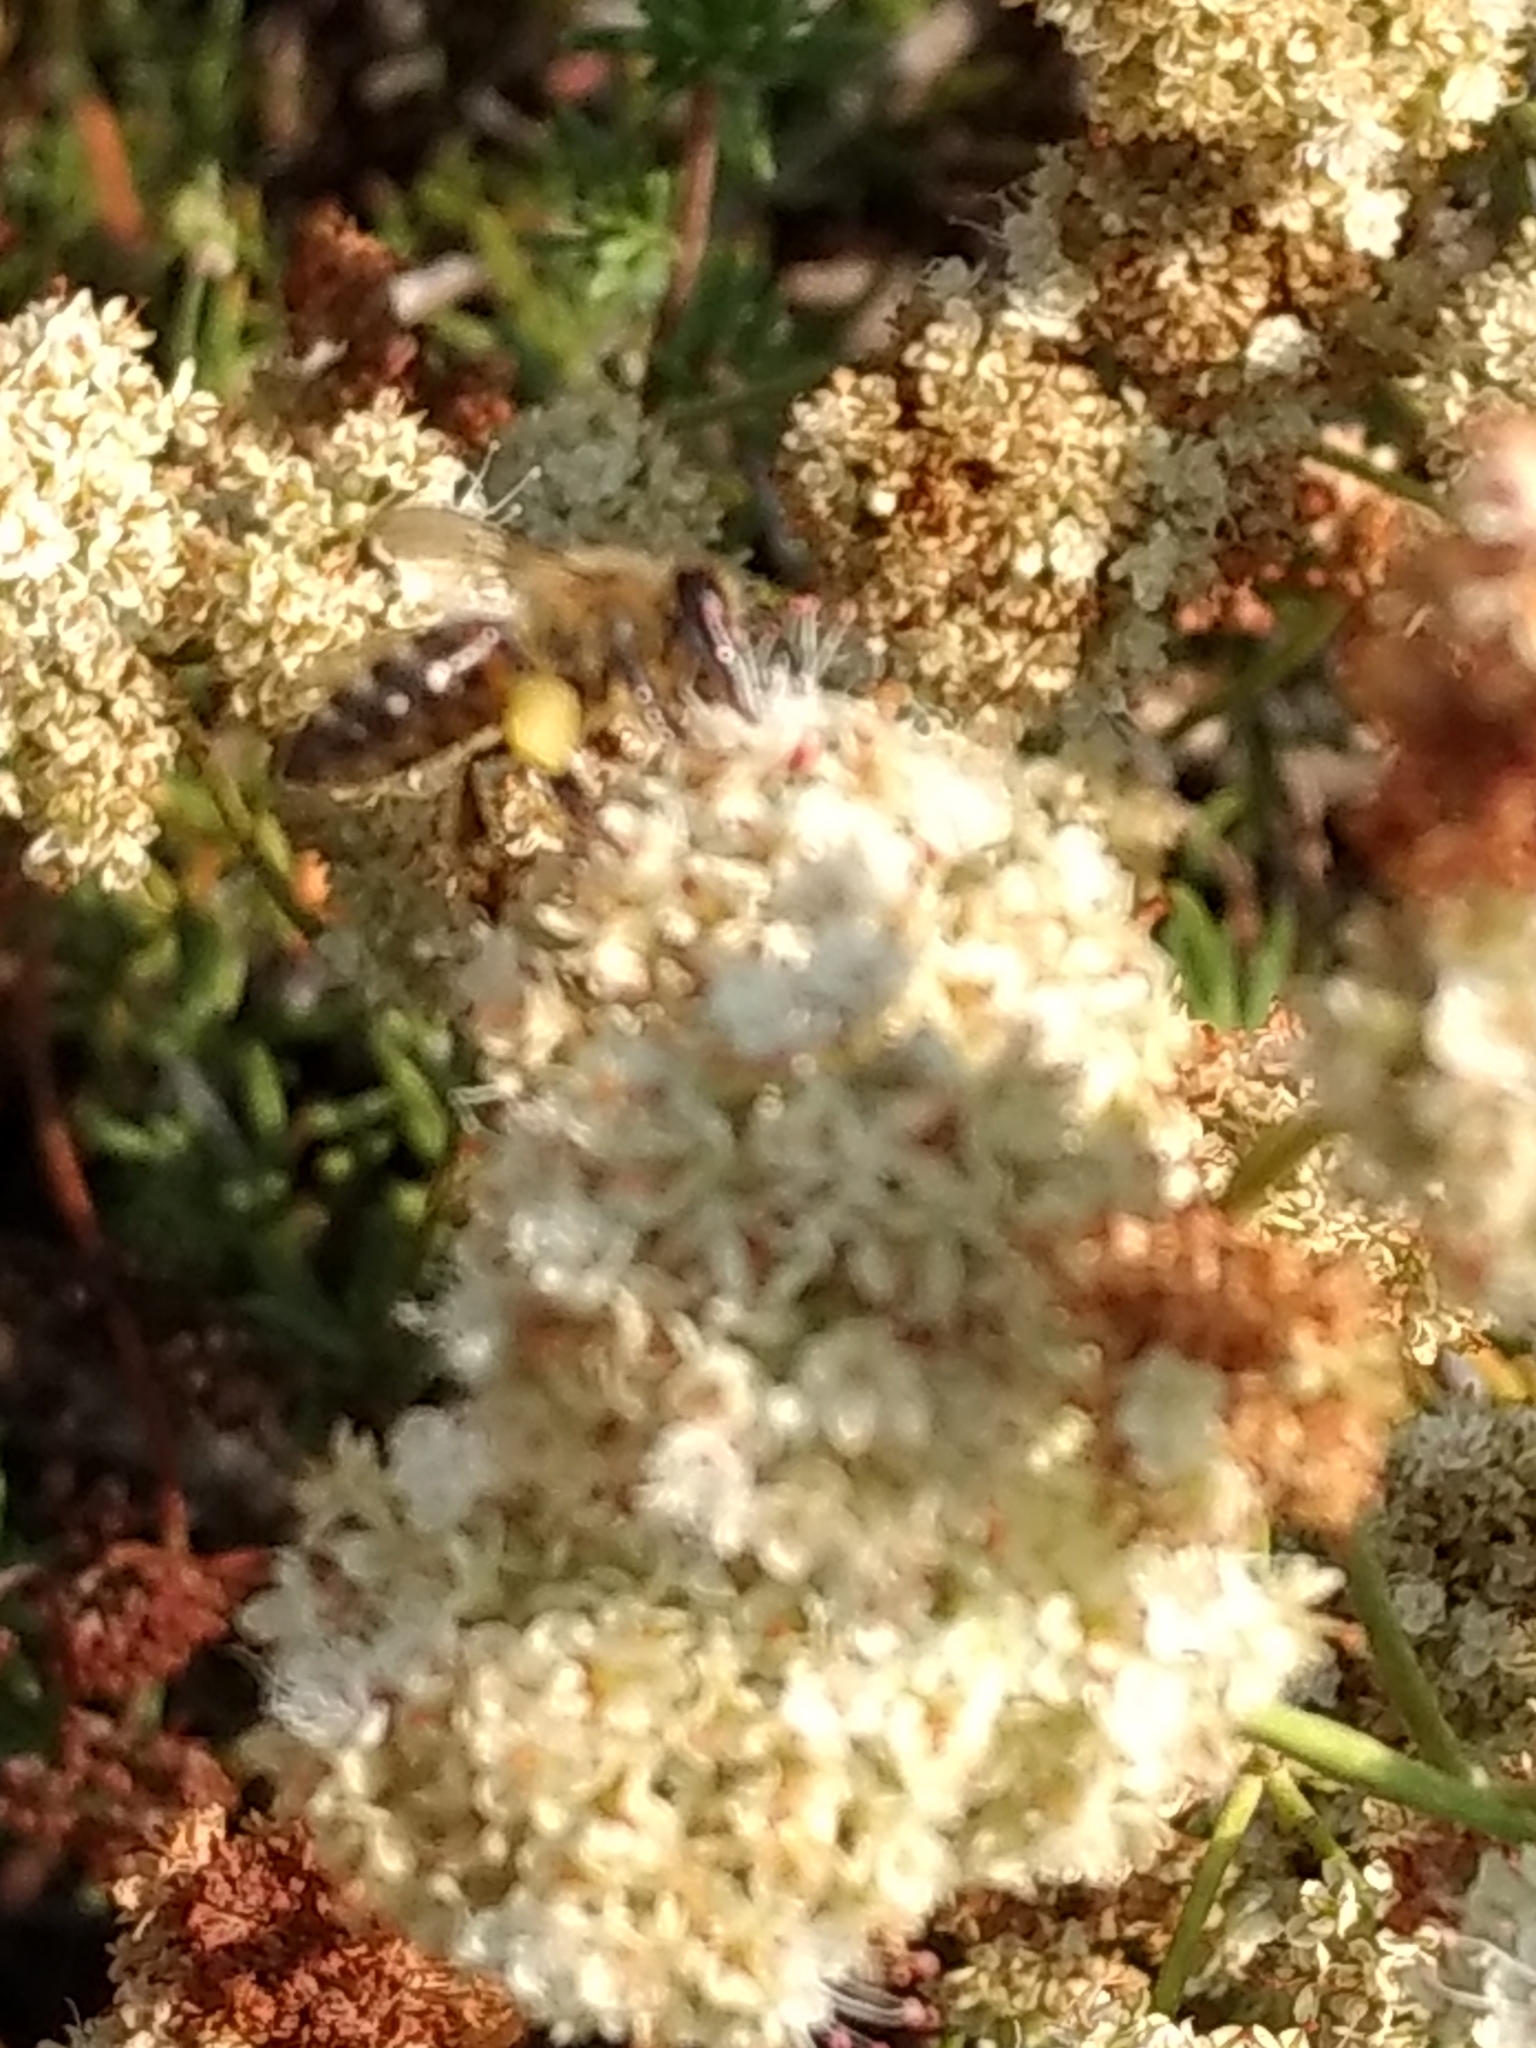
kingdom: Animalia
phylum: Arthropoda
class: Insecta
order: Hymenoptera
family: Apidae
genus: Apis
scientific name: Apis mellifera
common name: Honey bee
